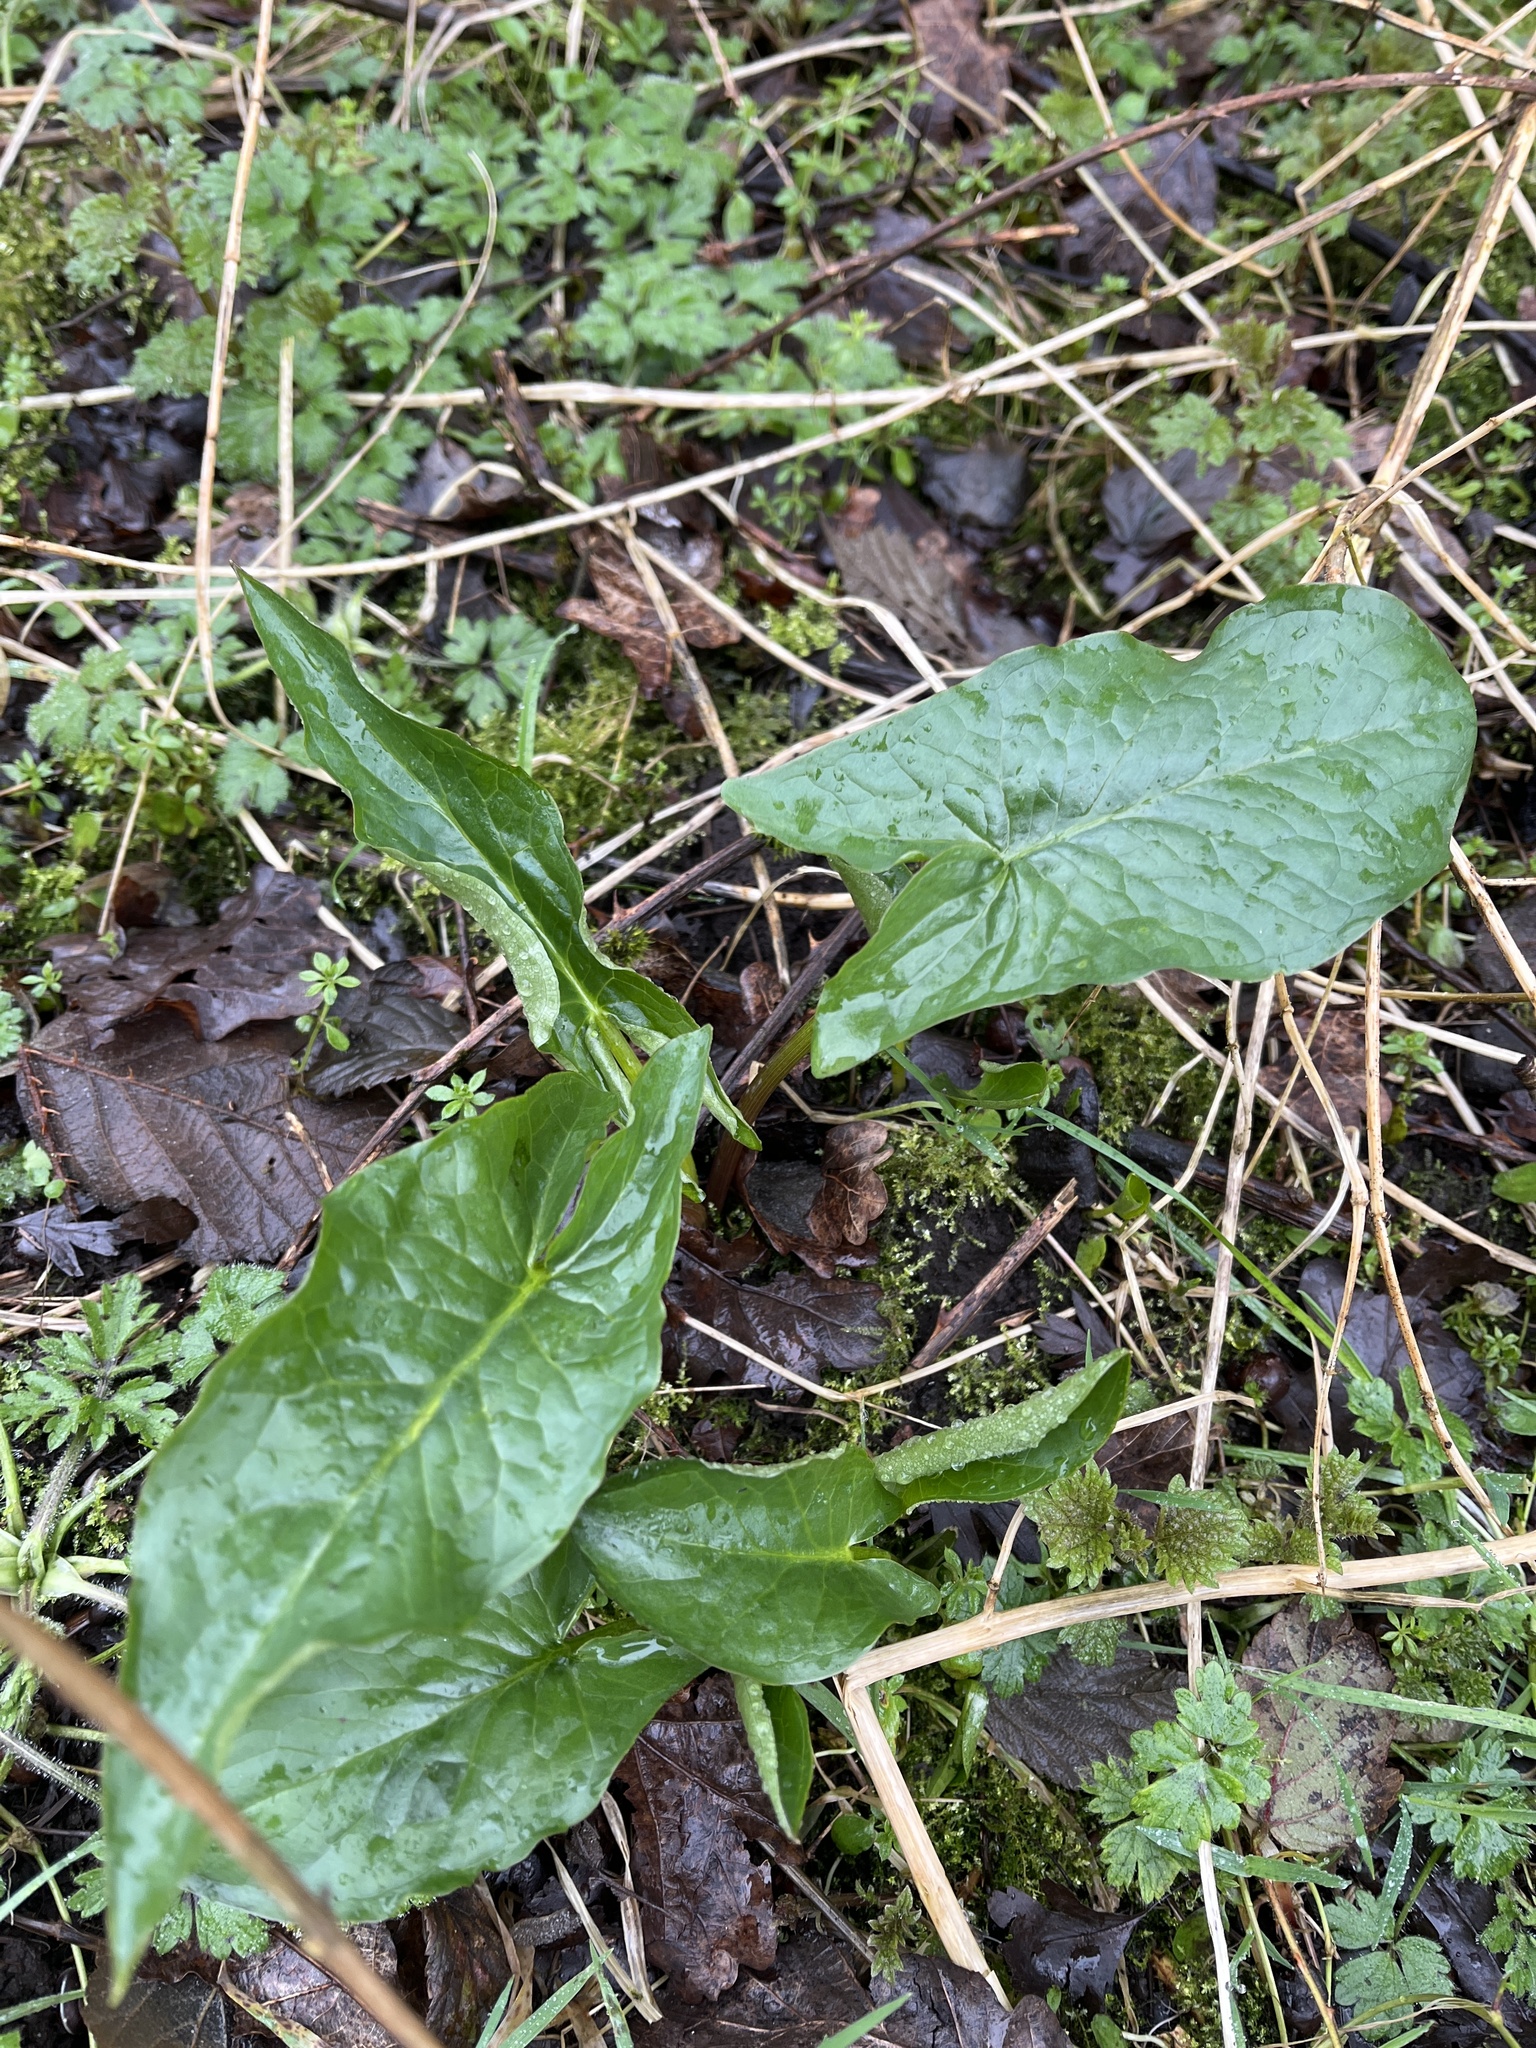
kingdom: Plantae
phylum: Tracheophyta
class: Liliopsida
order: Alismatales
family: Araceae
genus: Arum
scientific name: Arum maculatum
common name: Lords-and-ladies
